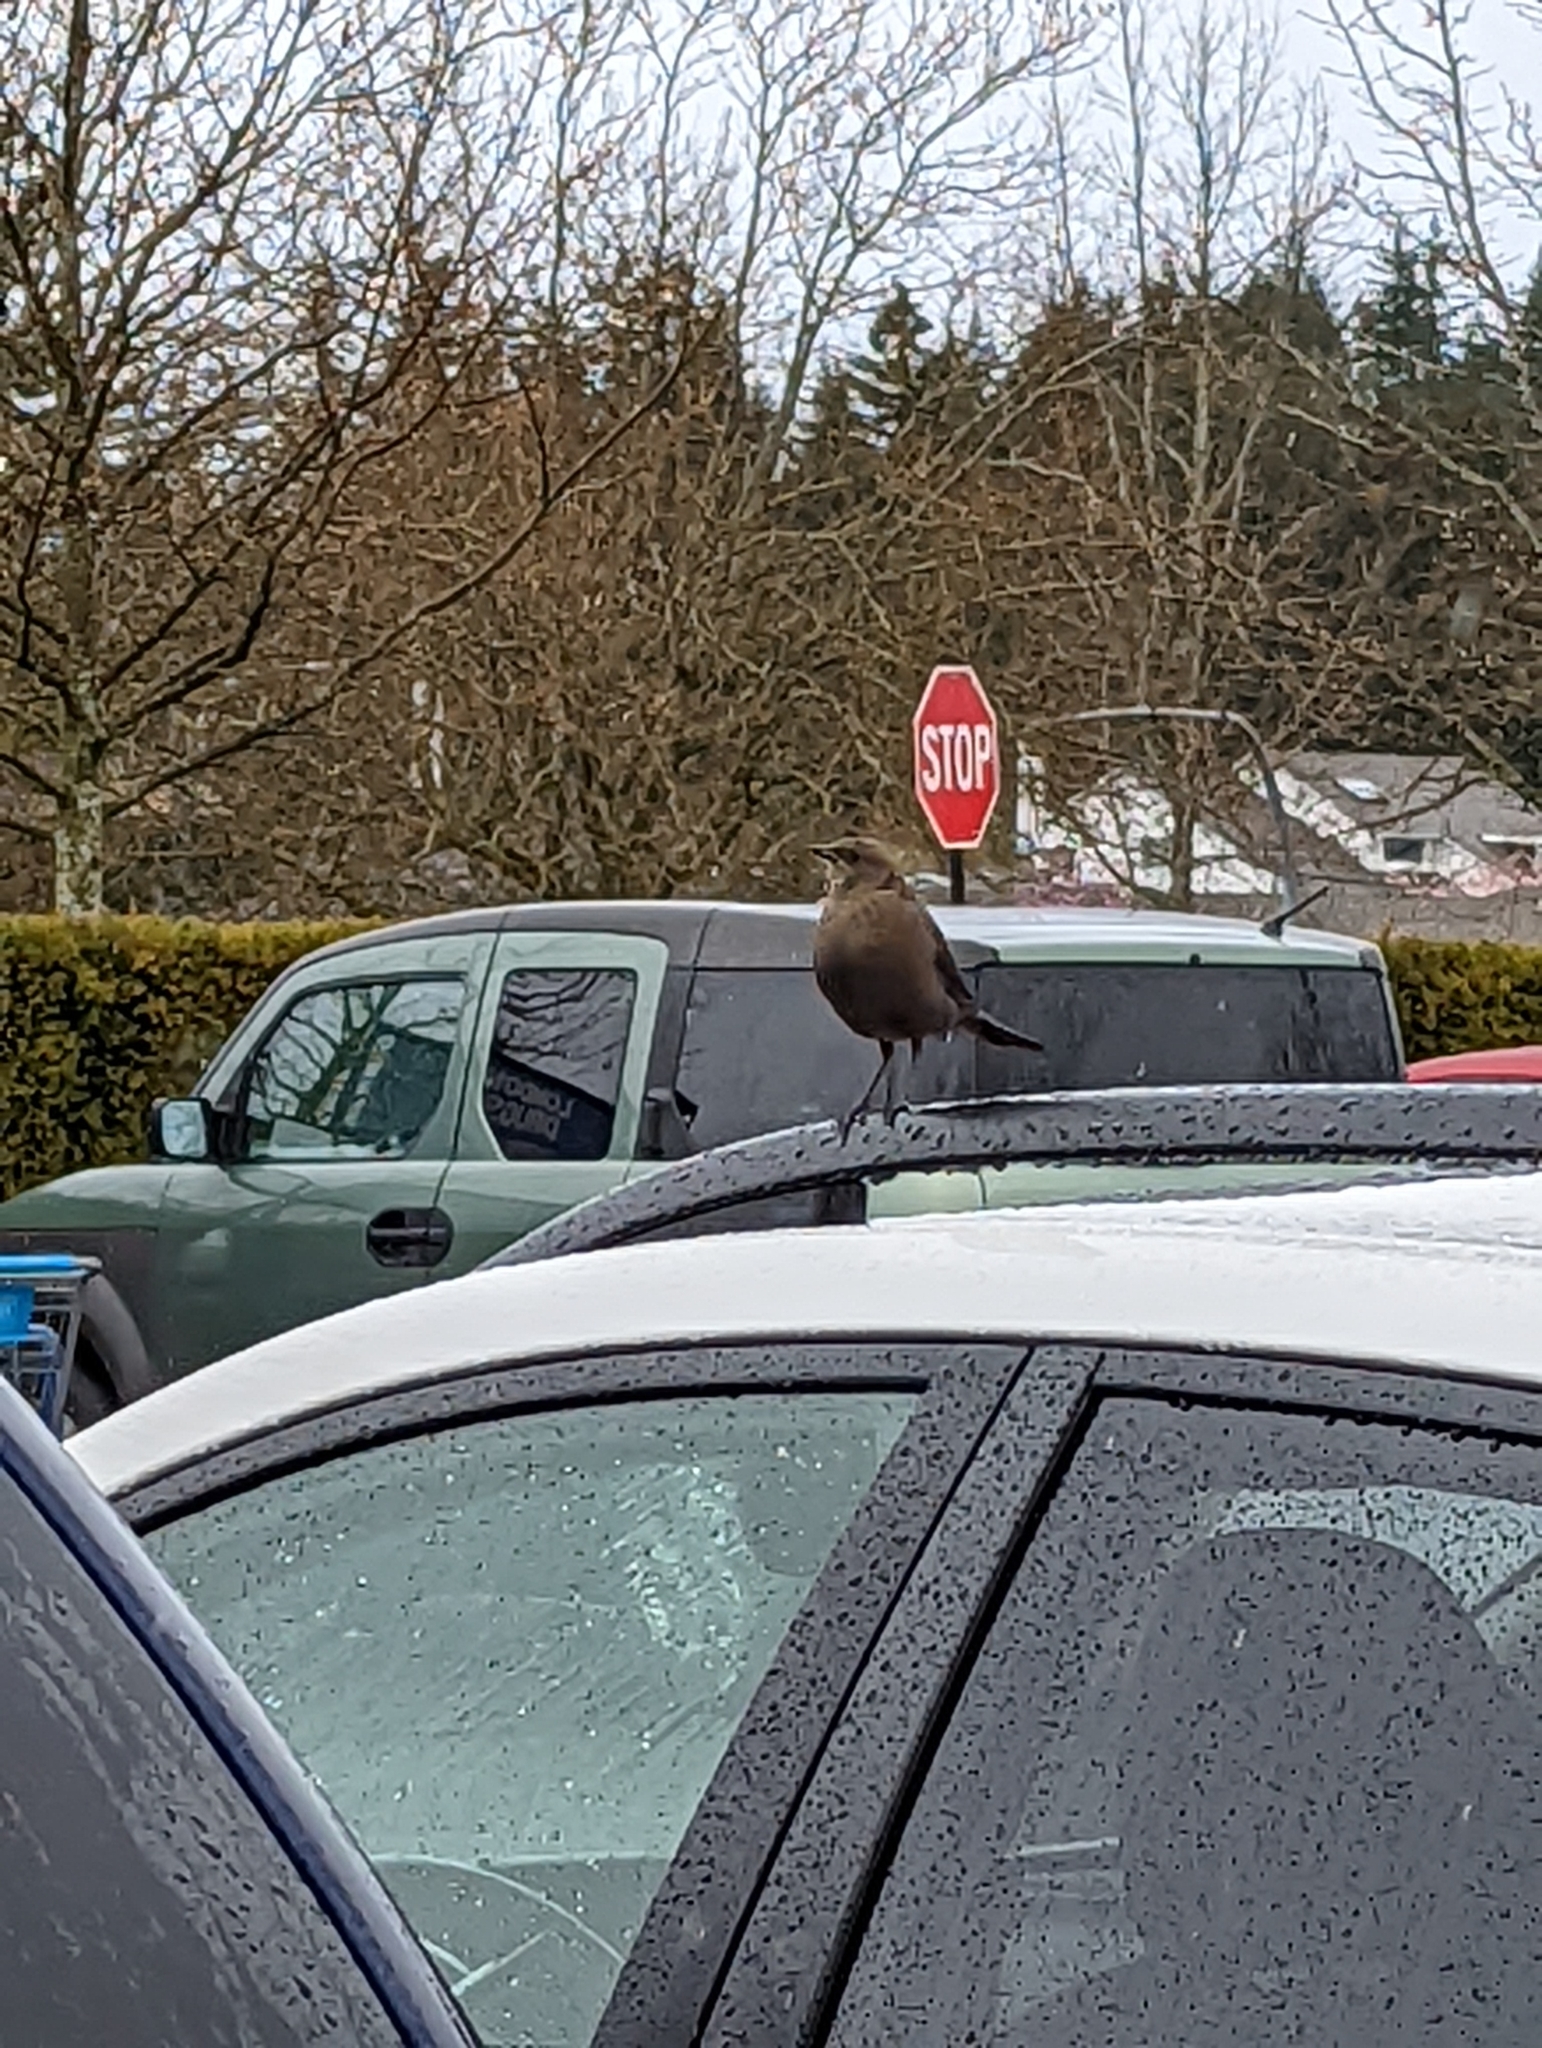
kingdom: Animalia
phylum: Chordata
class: Aves
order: Passeriformes
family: Icteridae
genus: Euphagus
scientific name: Euphagus cyanocephalus
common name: Brewer's blackbird
